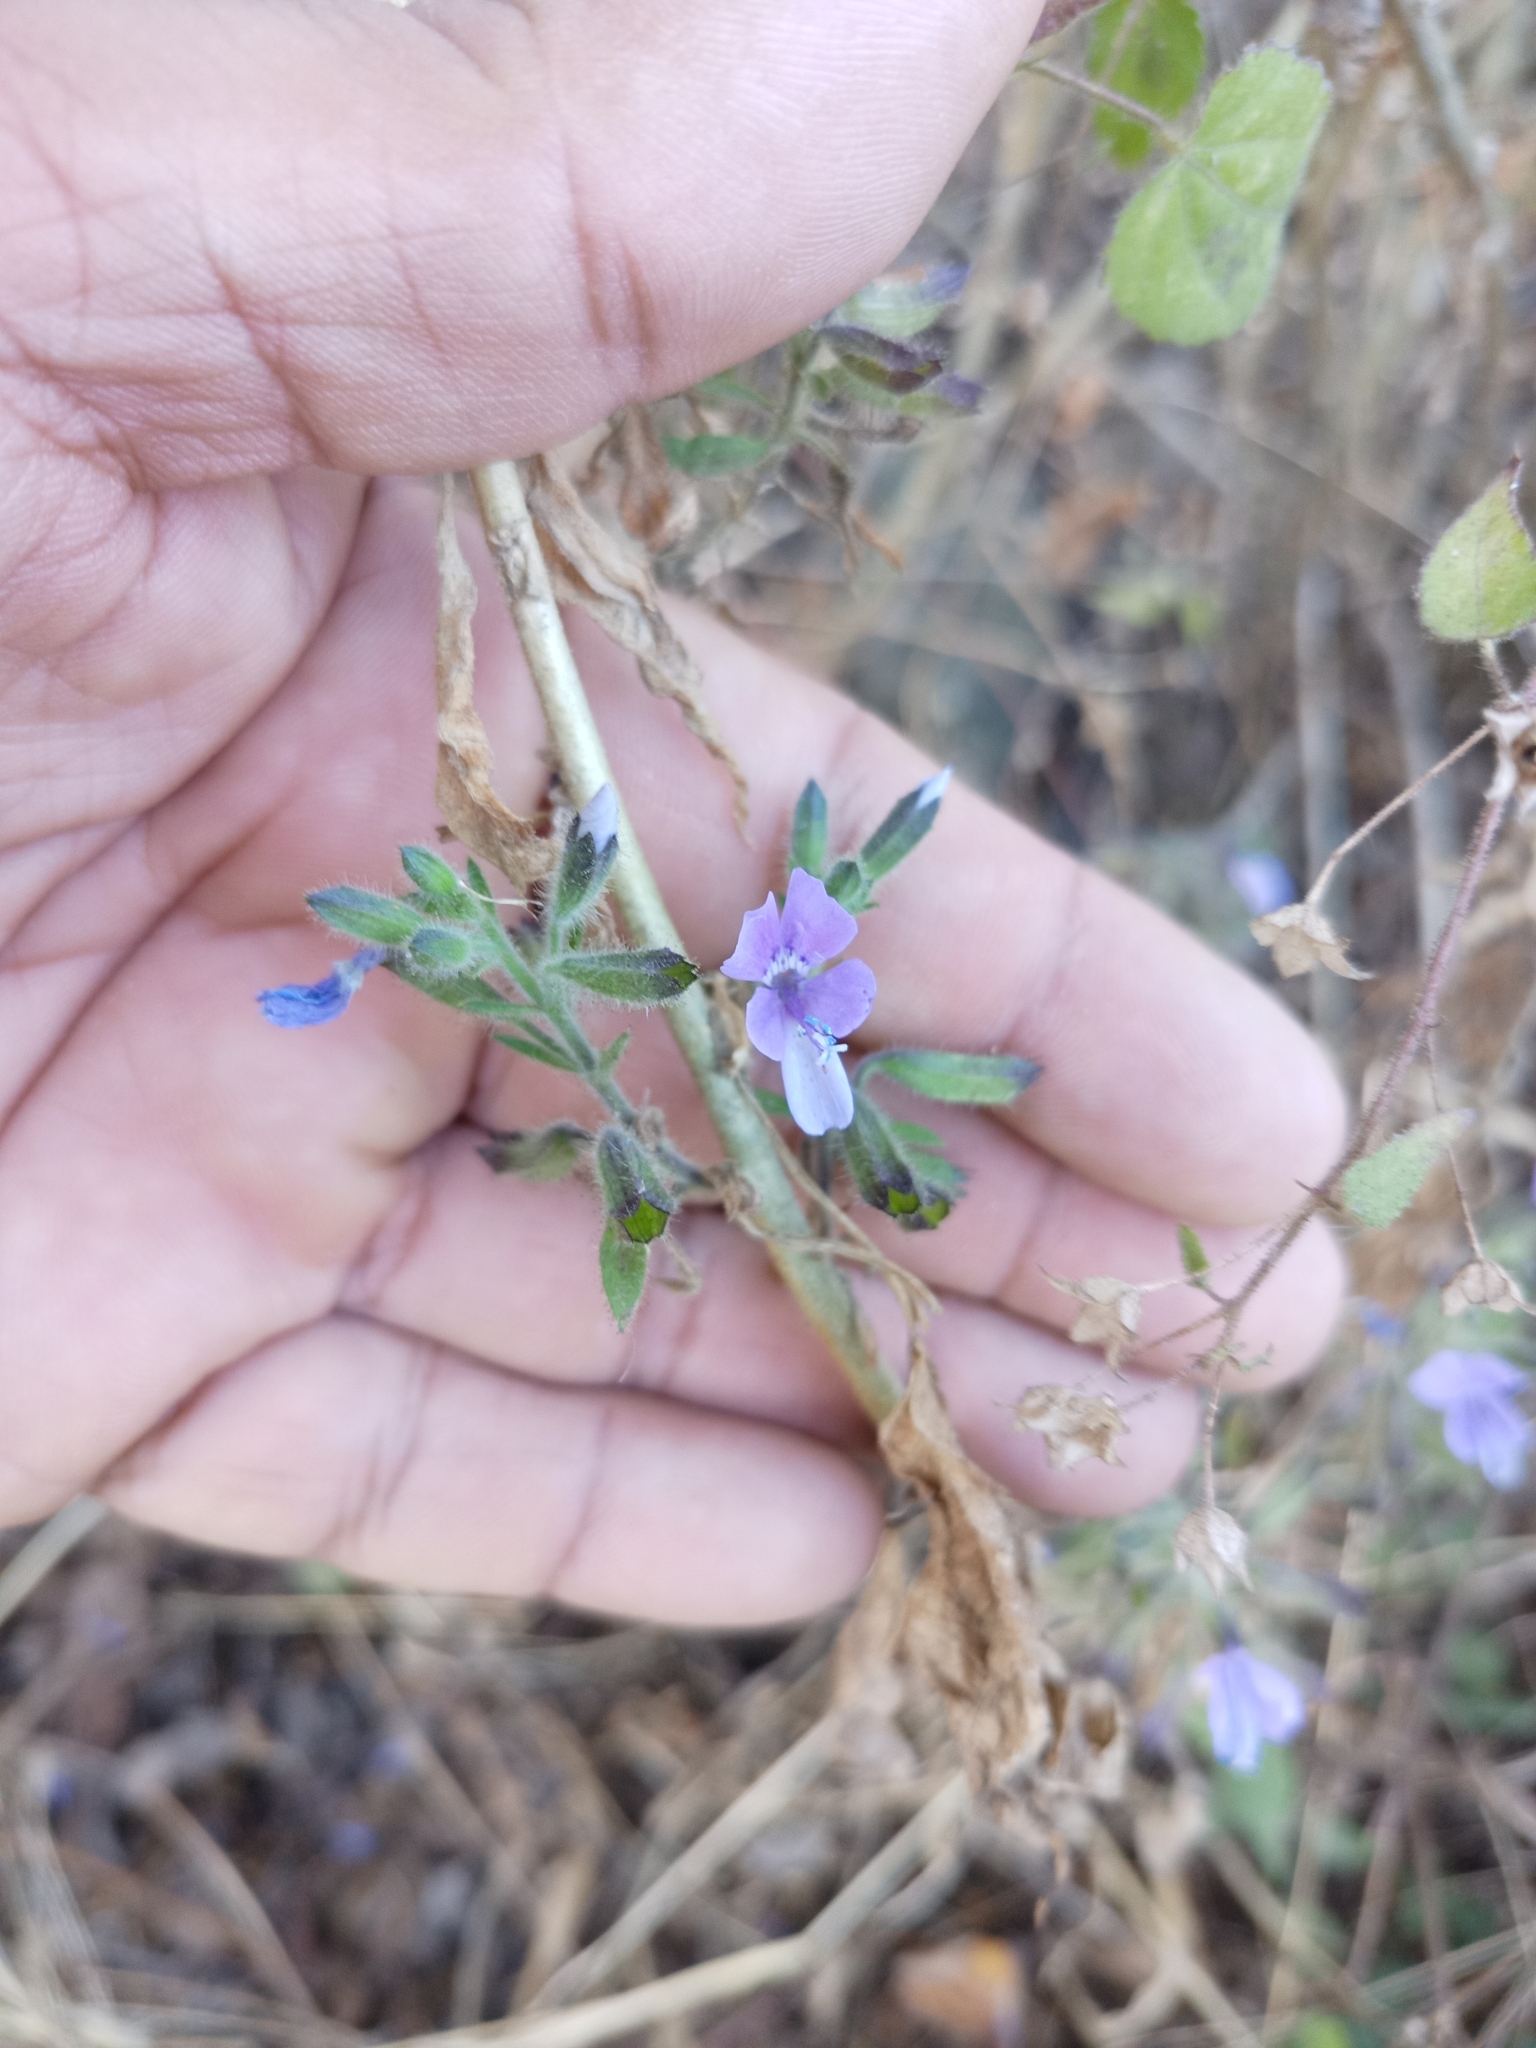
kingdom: Plantae
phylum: Tracheophyta
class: Magnoliopsida
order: Ericales
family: Polemoniaceae
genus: Bonplandia
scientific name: Bonplandia geminiflora
